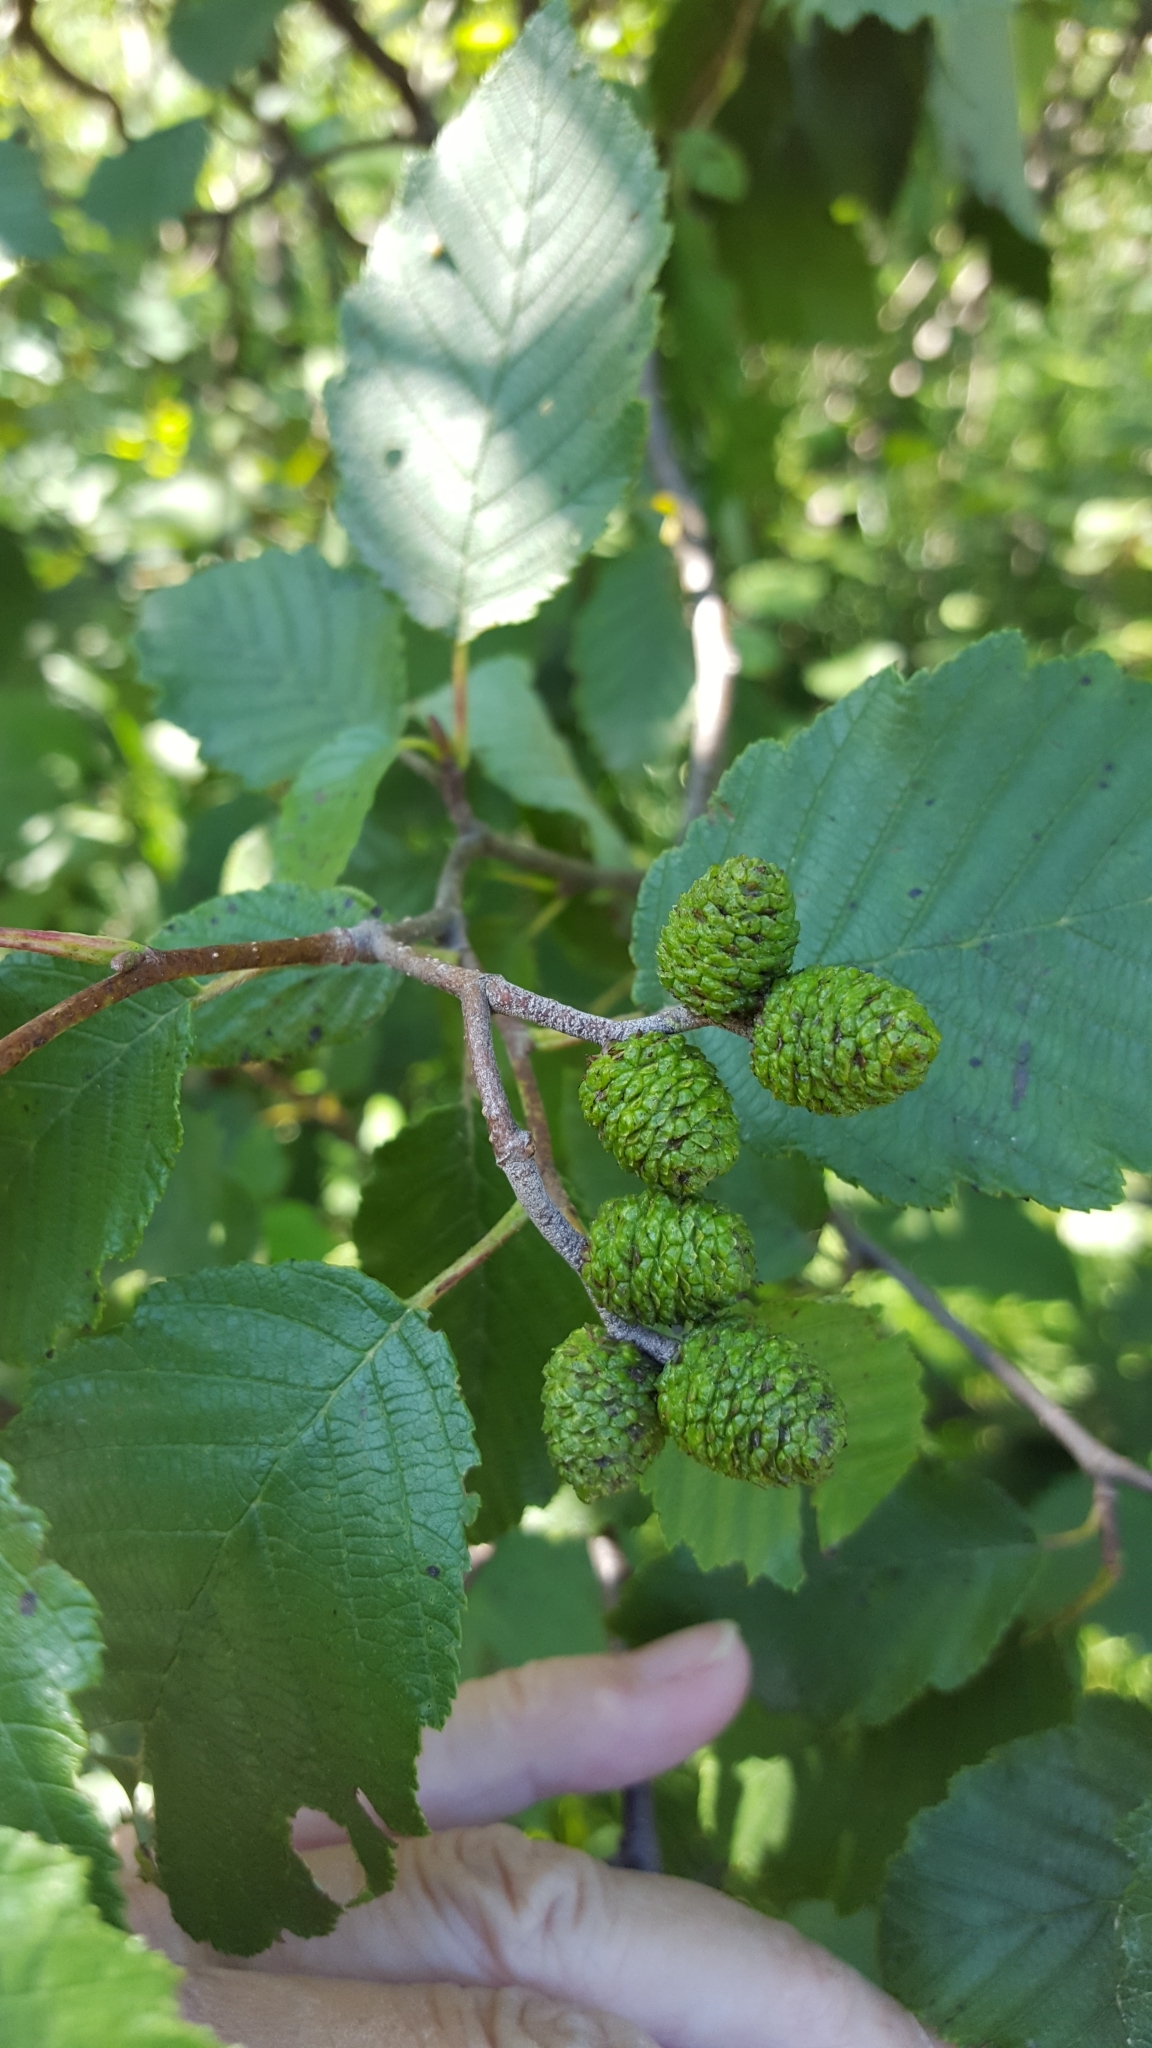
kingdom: Plantae
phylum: Tracheophyta
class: Magnoliopsida
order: Fagales
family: Betulaceae
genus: Alnus
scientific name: Alnus incana
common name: Grey alder
